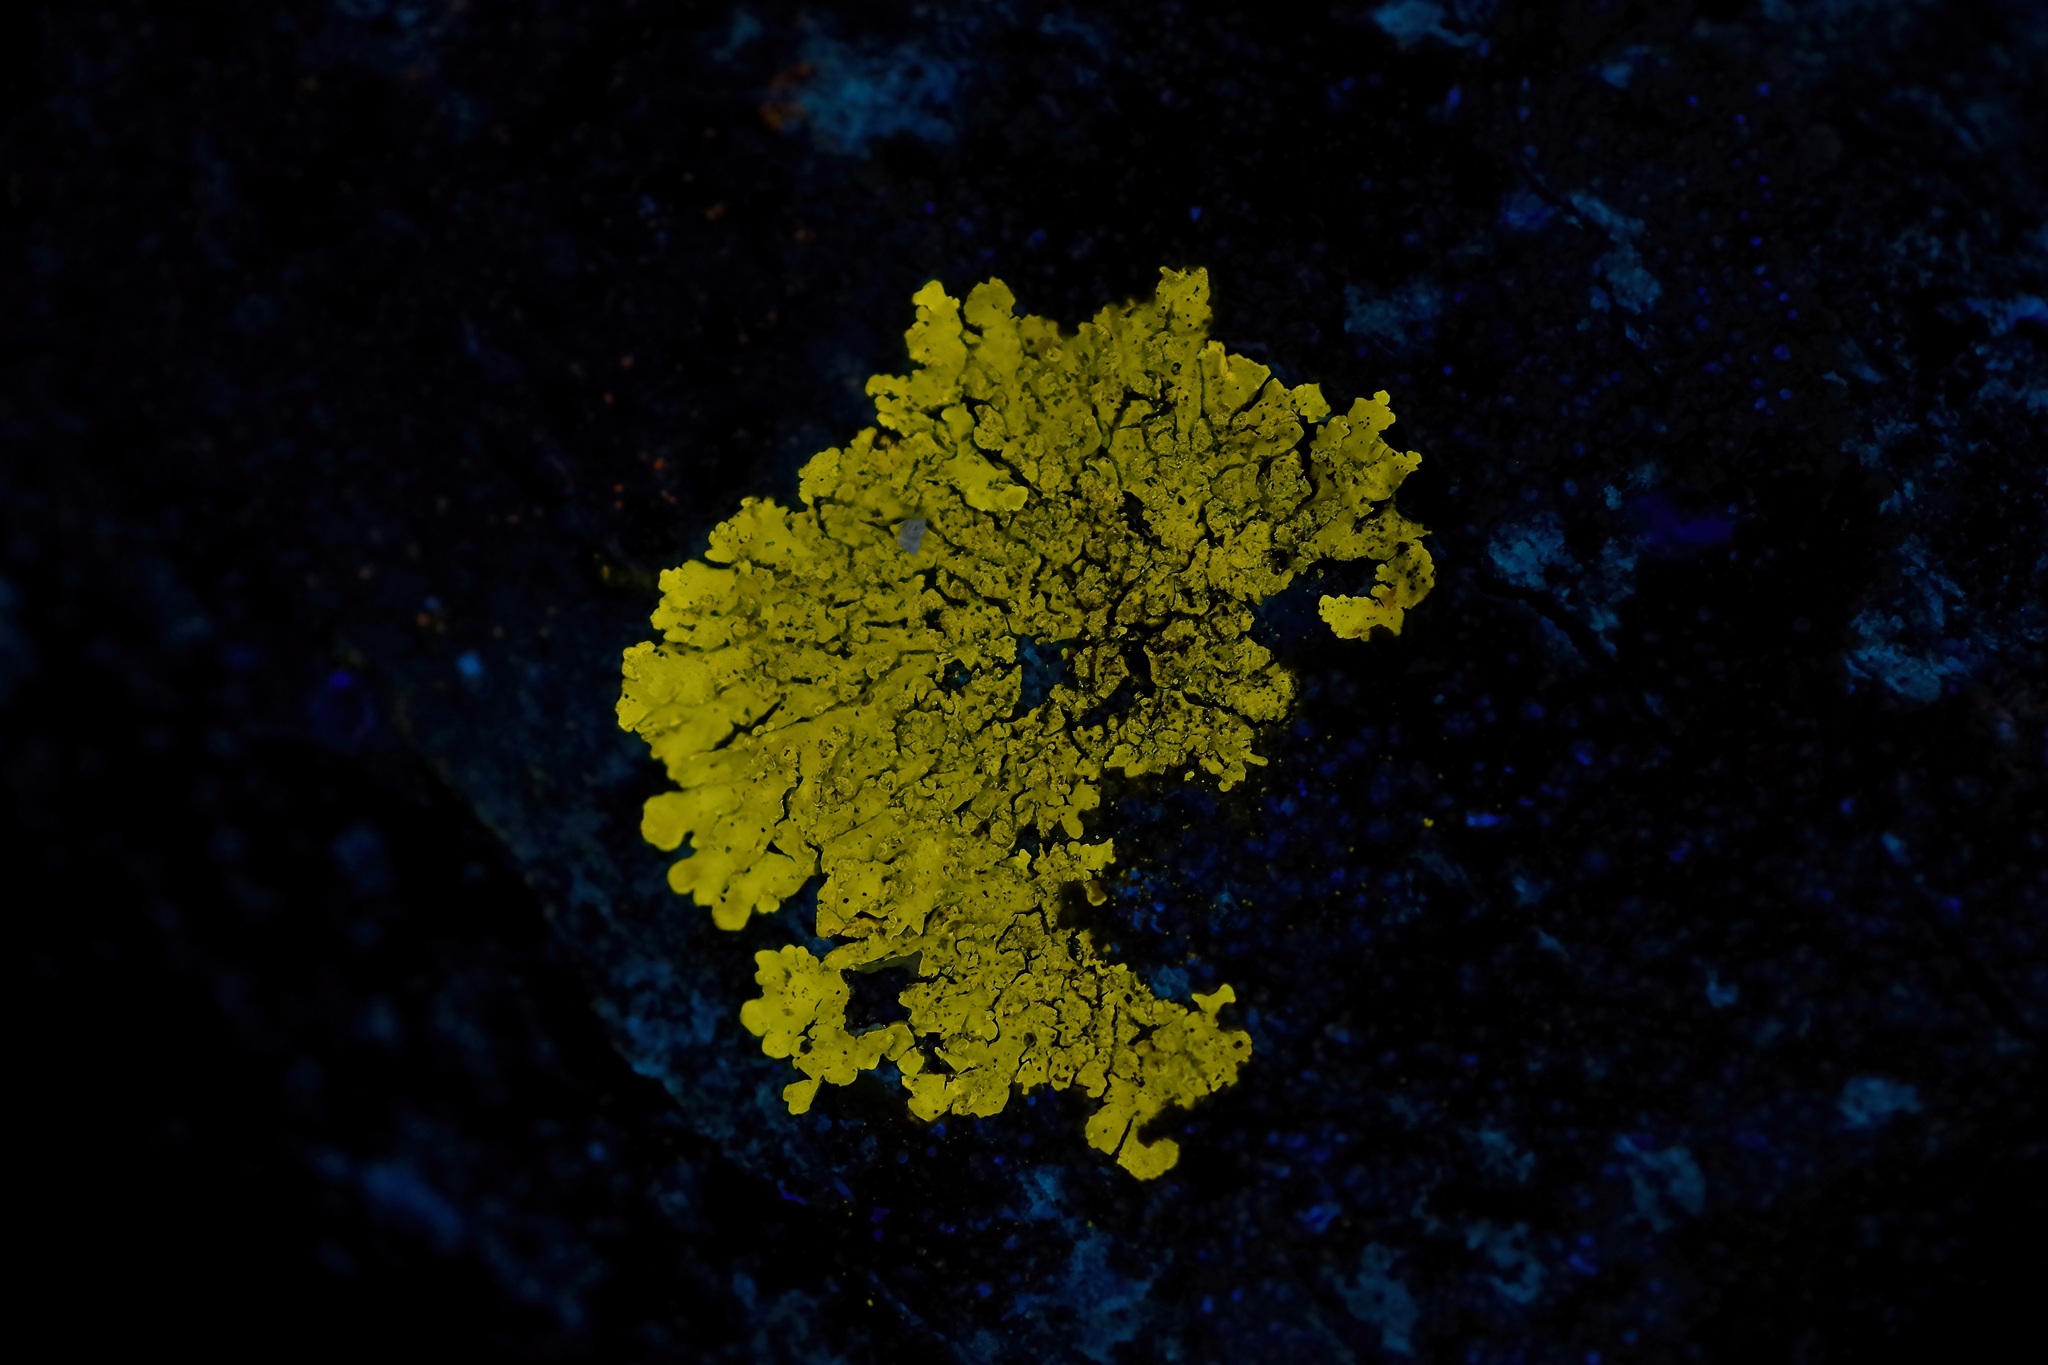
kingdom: Fungi
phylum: Ascomycota
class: Lecanoromycetes
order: Caliciales
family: Caliciaceae
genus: Pyxine
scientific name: Pyxine subcinerea
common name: Mustard lichen
